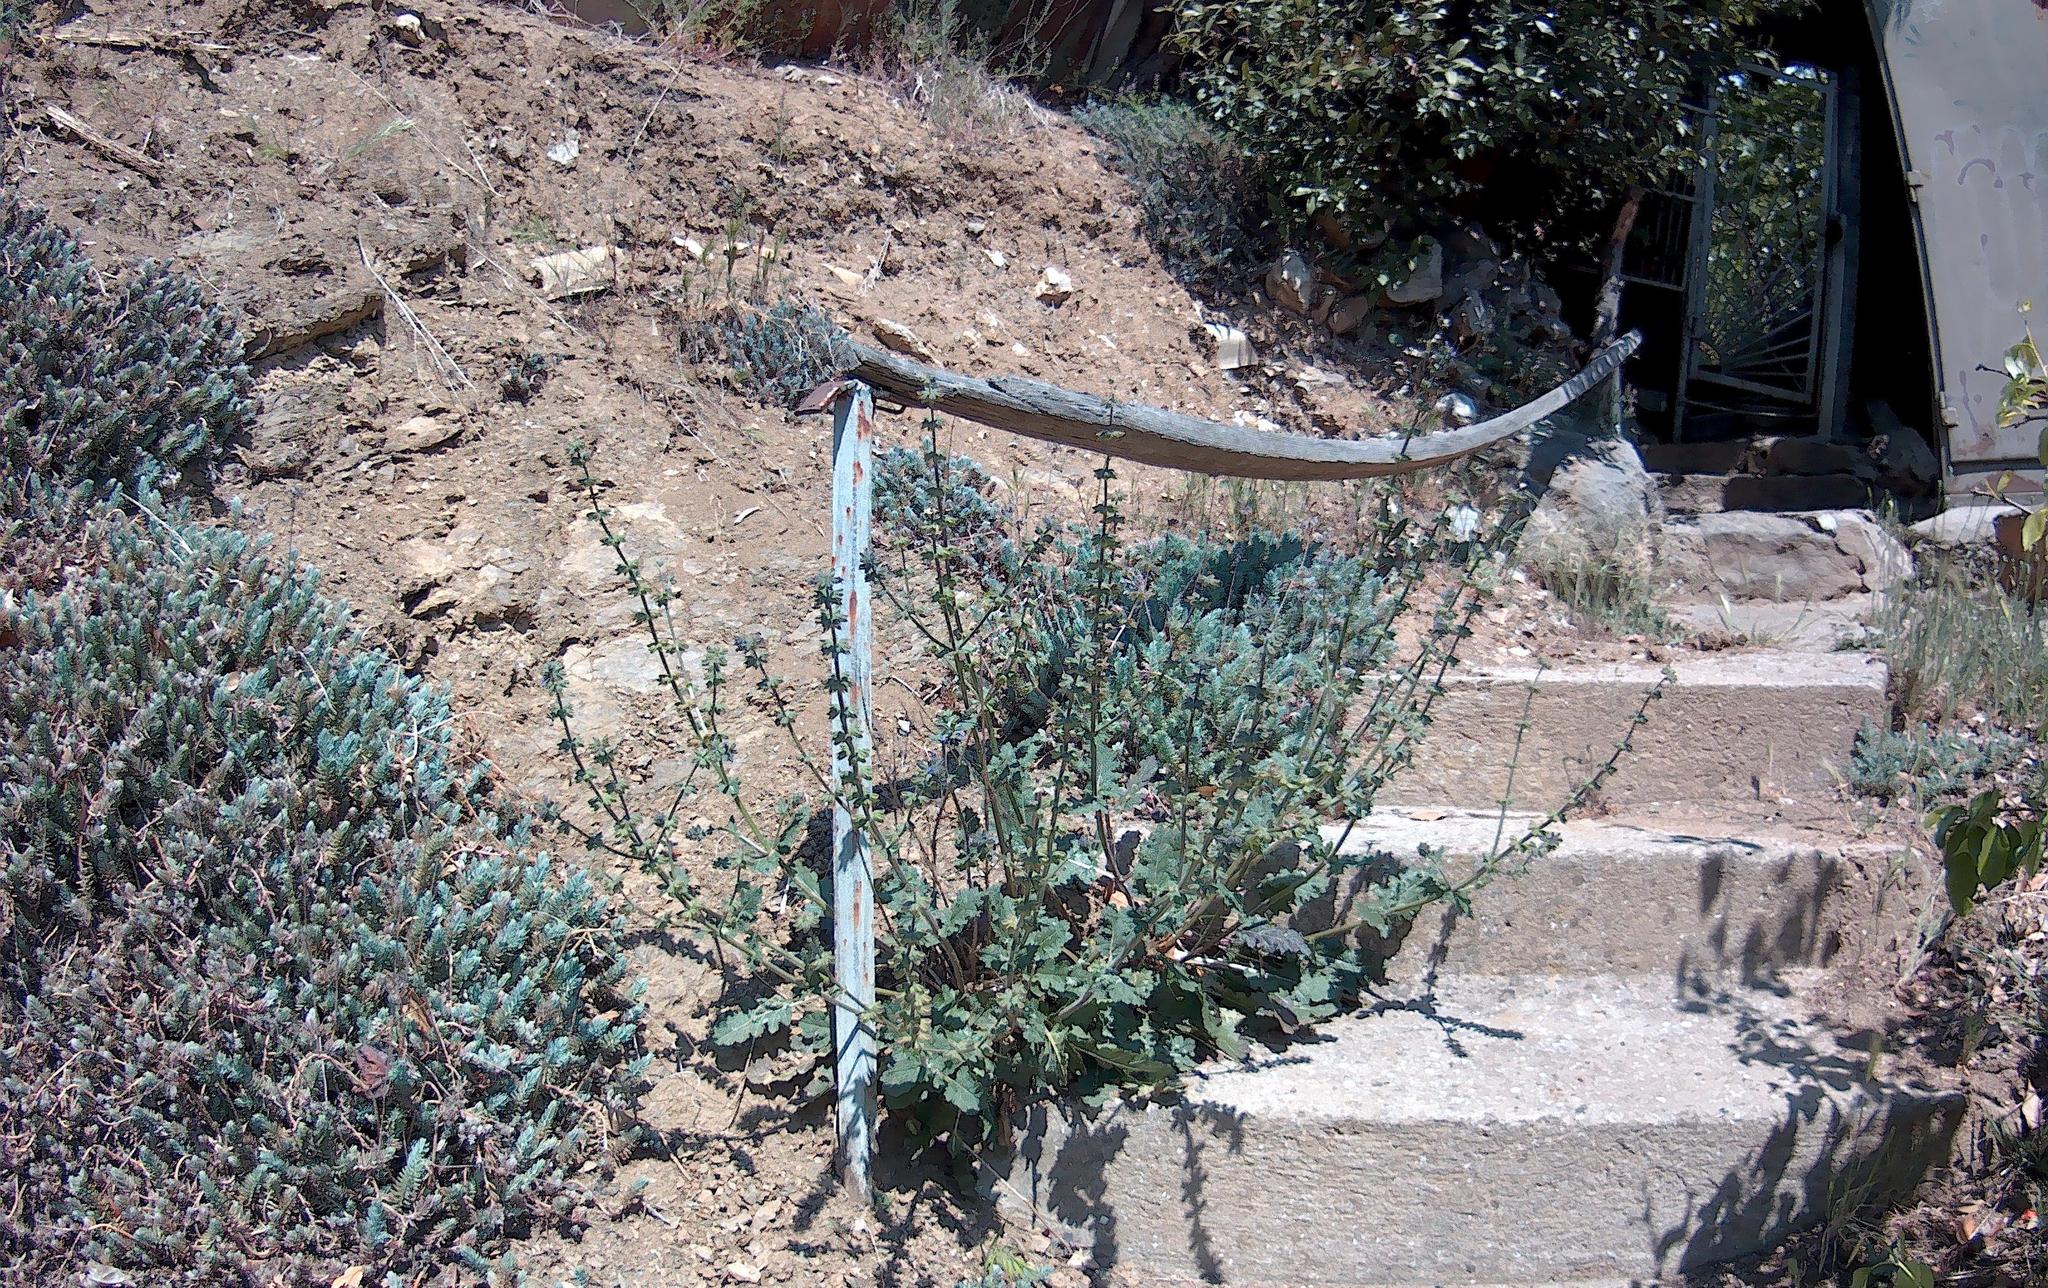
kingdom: Plantae
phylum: Tracheophyta
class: Magnoliopsida
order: Lamiales
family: Lamiaceae
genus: Salvia
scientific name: Salvia verbenaca
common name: Wild clary
